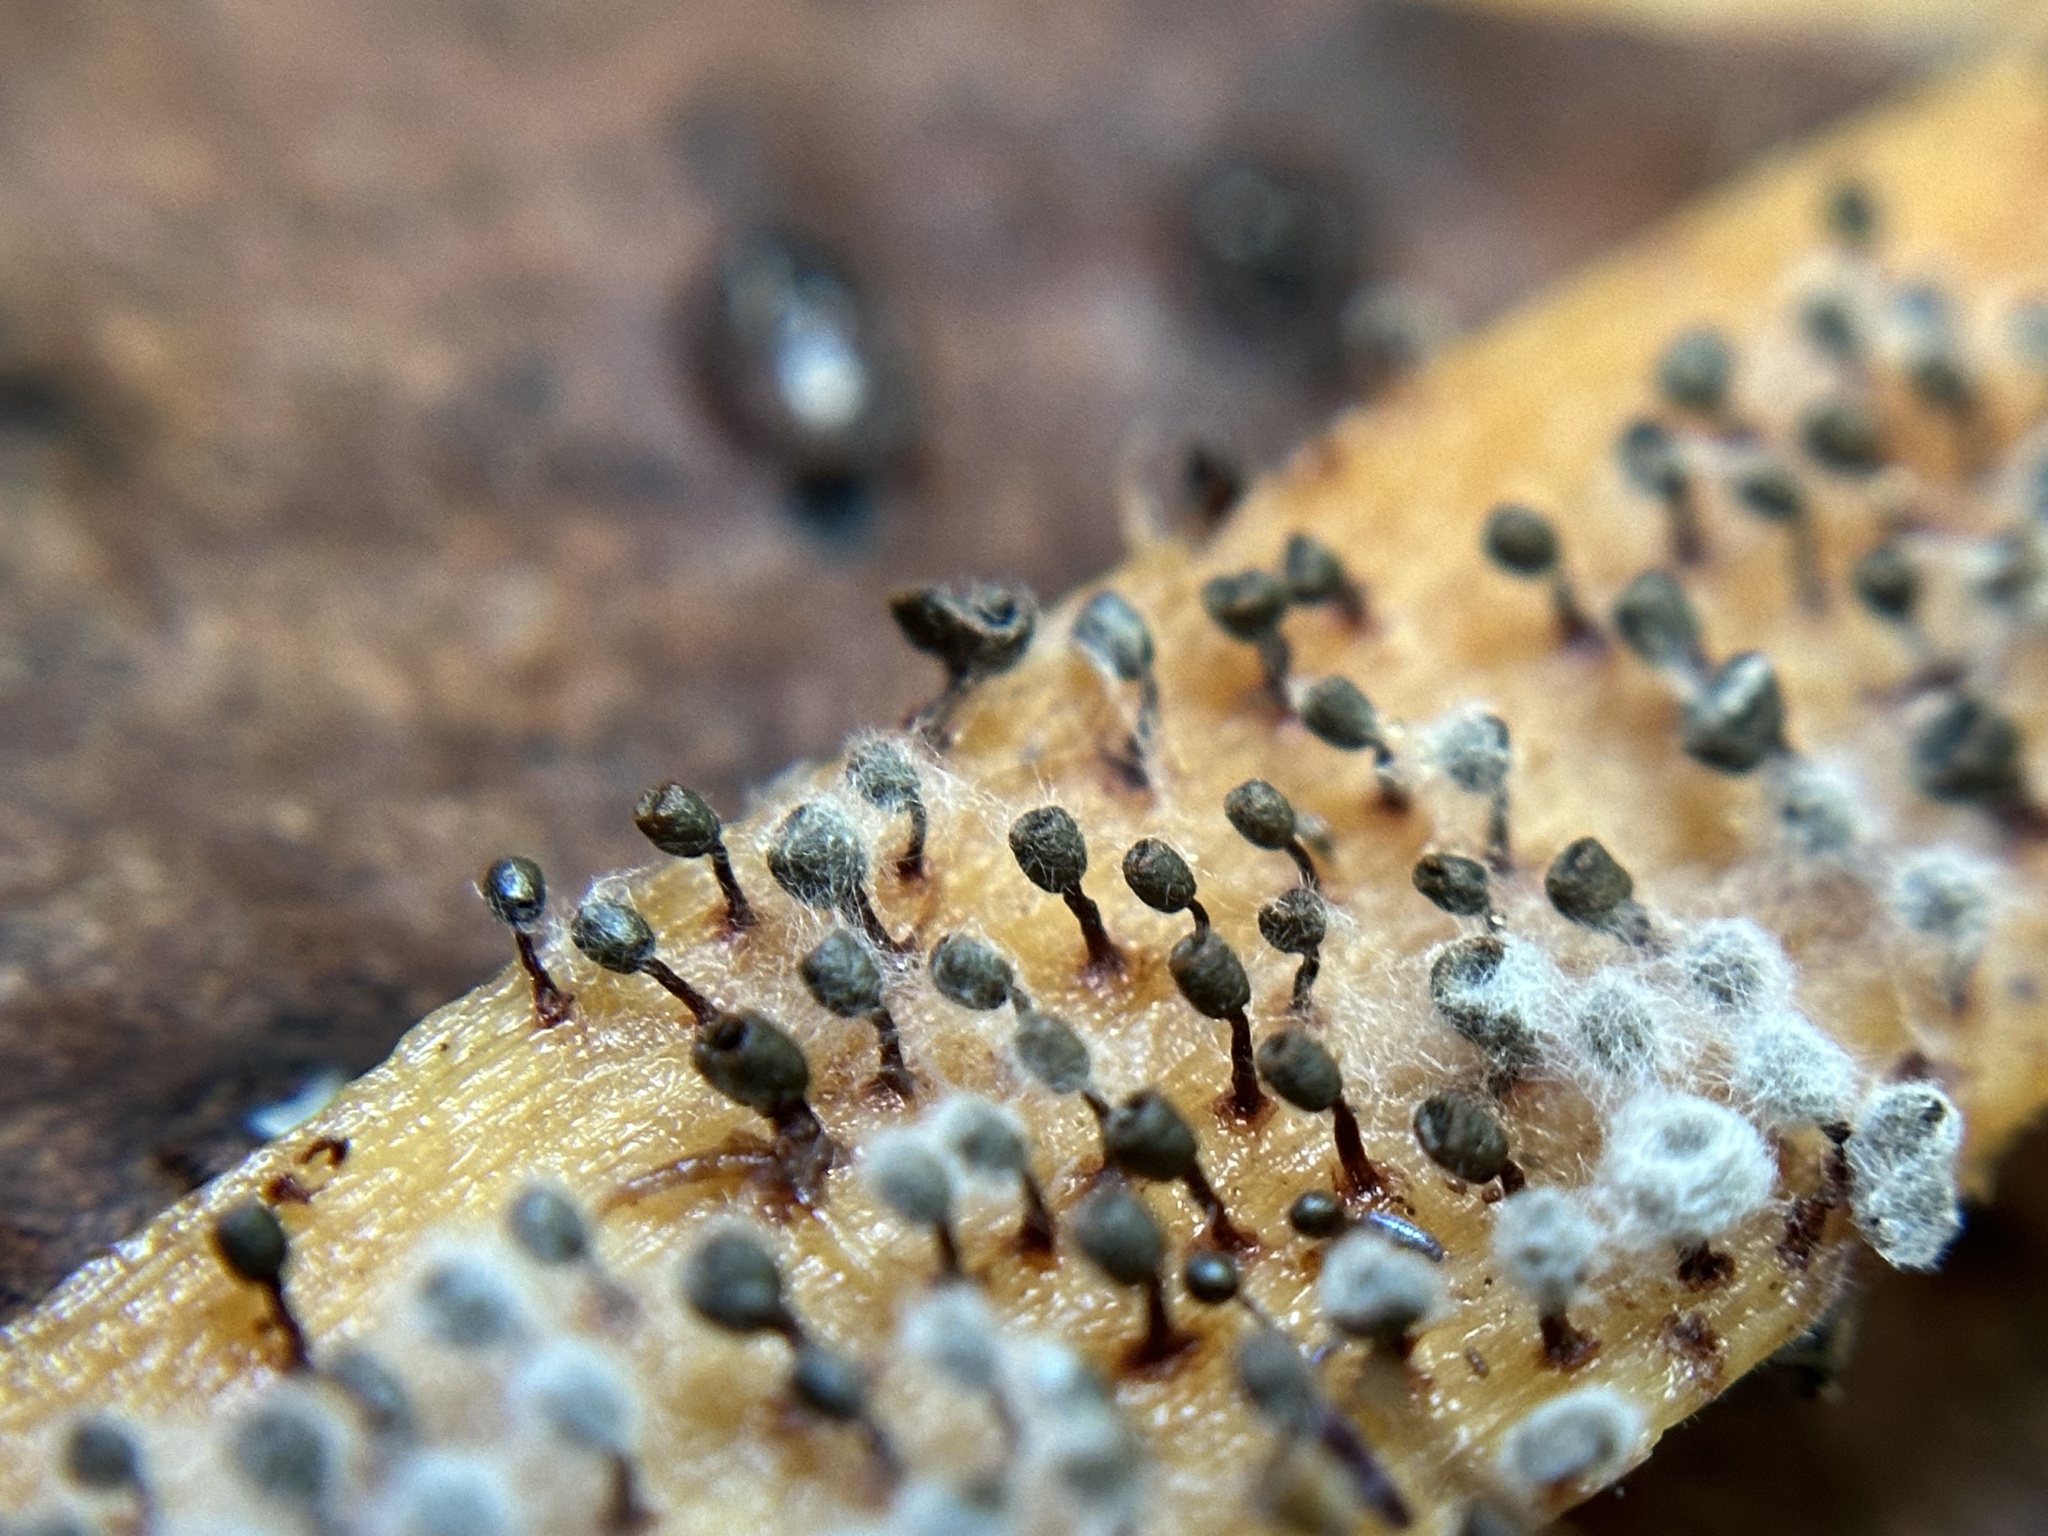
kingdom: Protozoa
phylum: Mycetozoa
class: Myxomycetes
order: Physarales
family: Physaraceae
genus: Physarella
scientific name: Physarella oblonga
